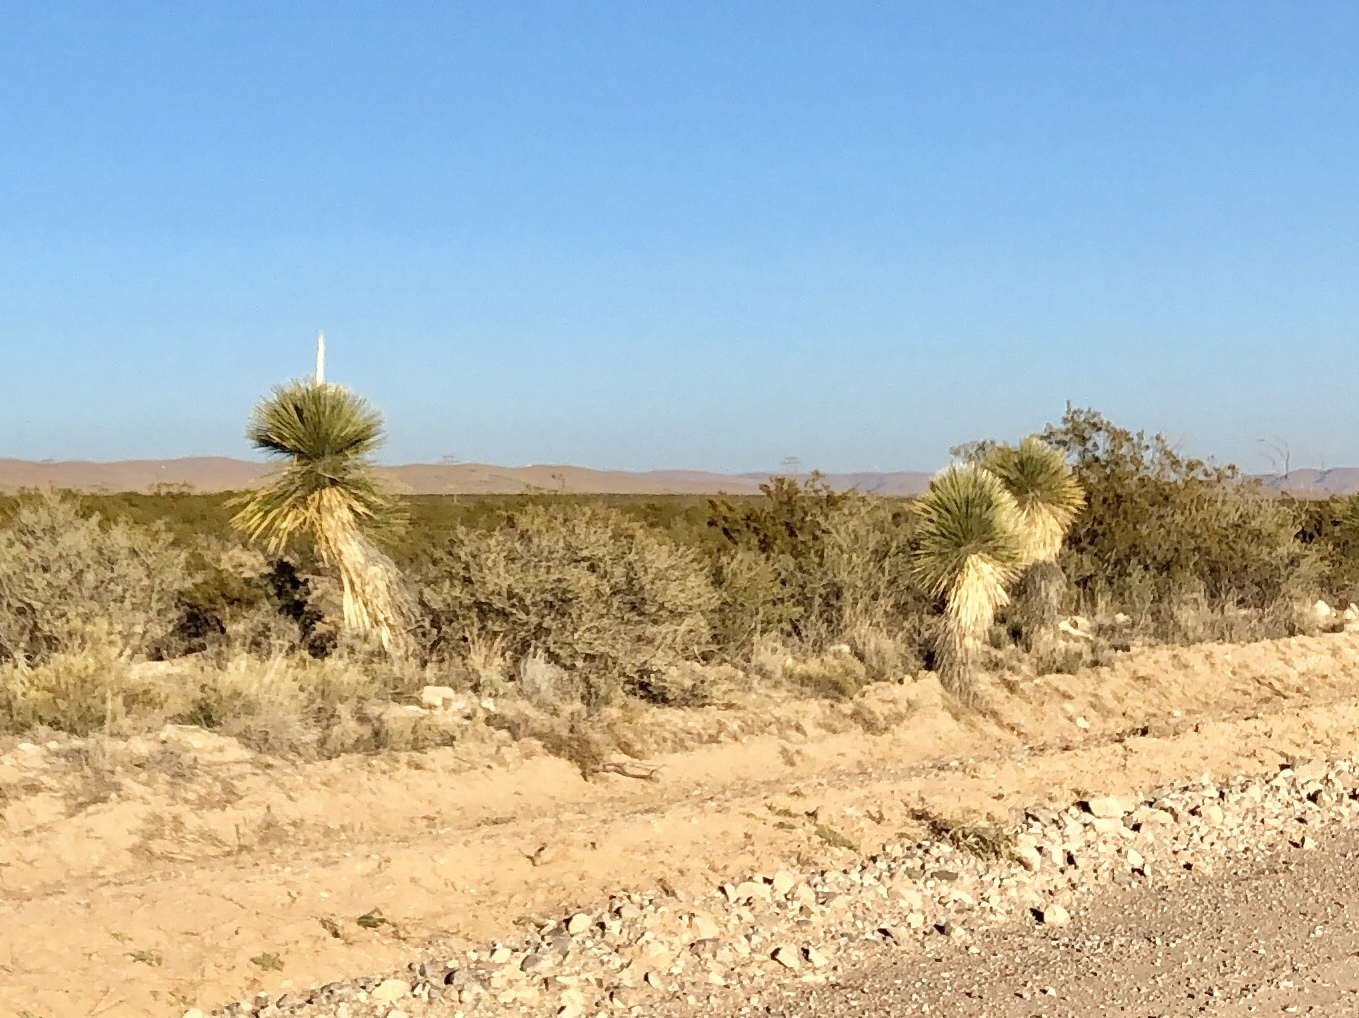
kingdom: Plantae
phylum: Tracheophyta
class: Liliopsida
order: Asparagales
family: Asparagaceae
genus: Yucca
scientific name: Yucca elata
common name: Palmella
